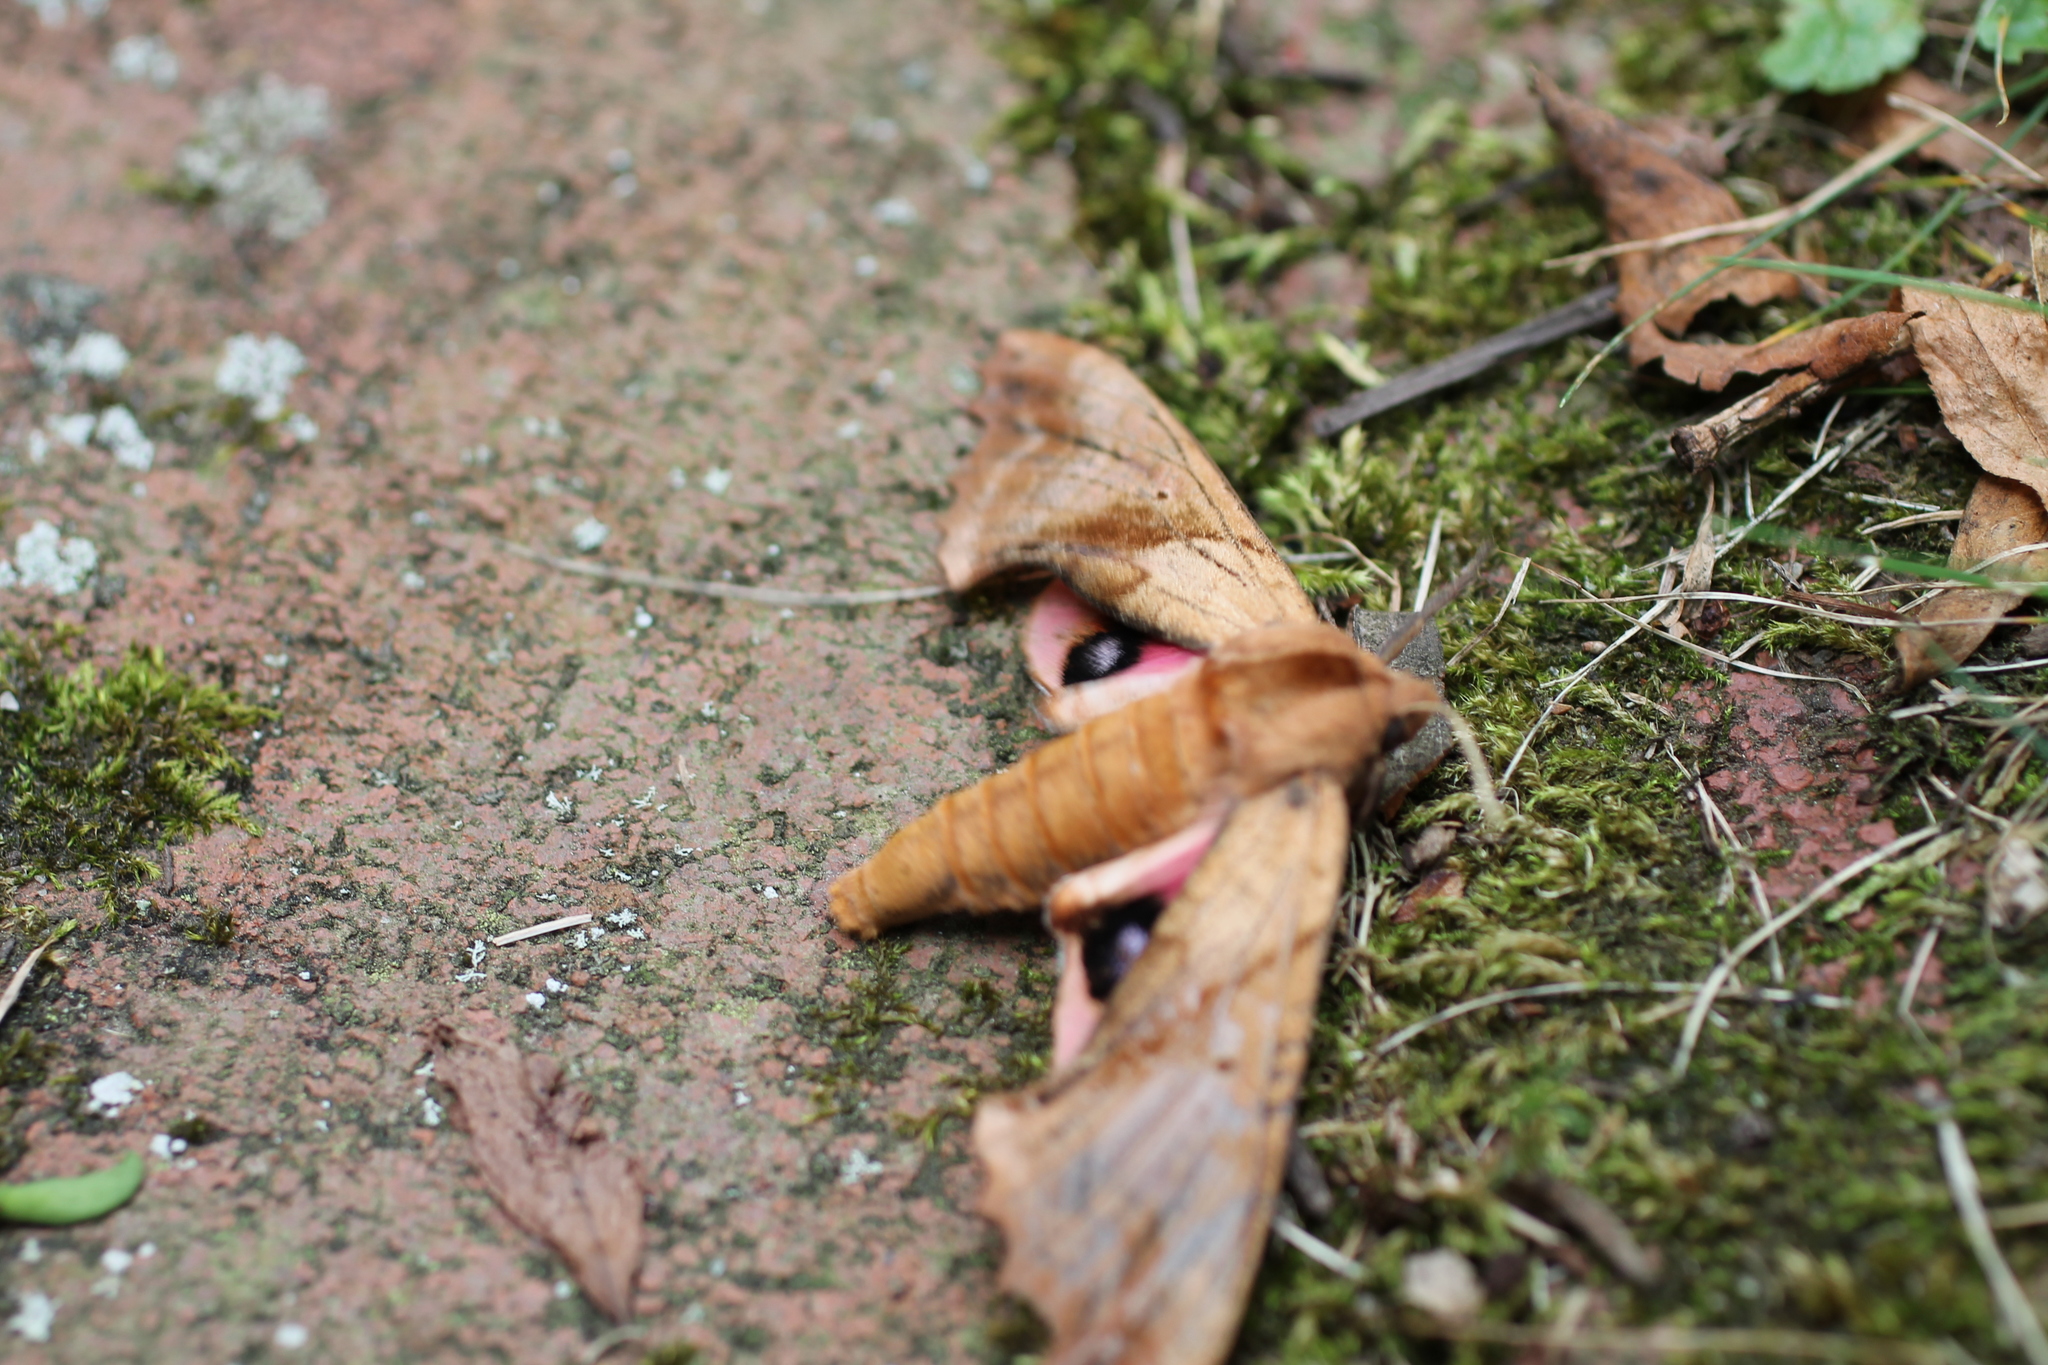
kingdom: Animalia
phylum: Arthropoda
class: Insecta
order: Lepidoptera
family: Sphingidae
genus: Paonias
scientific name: Paonias excaecata
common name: Blind-eyed sphinx
